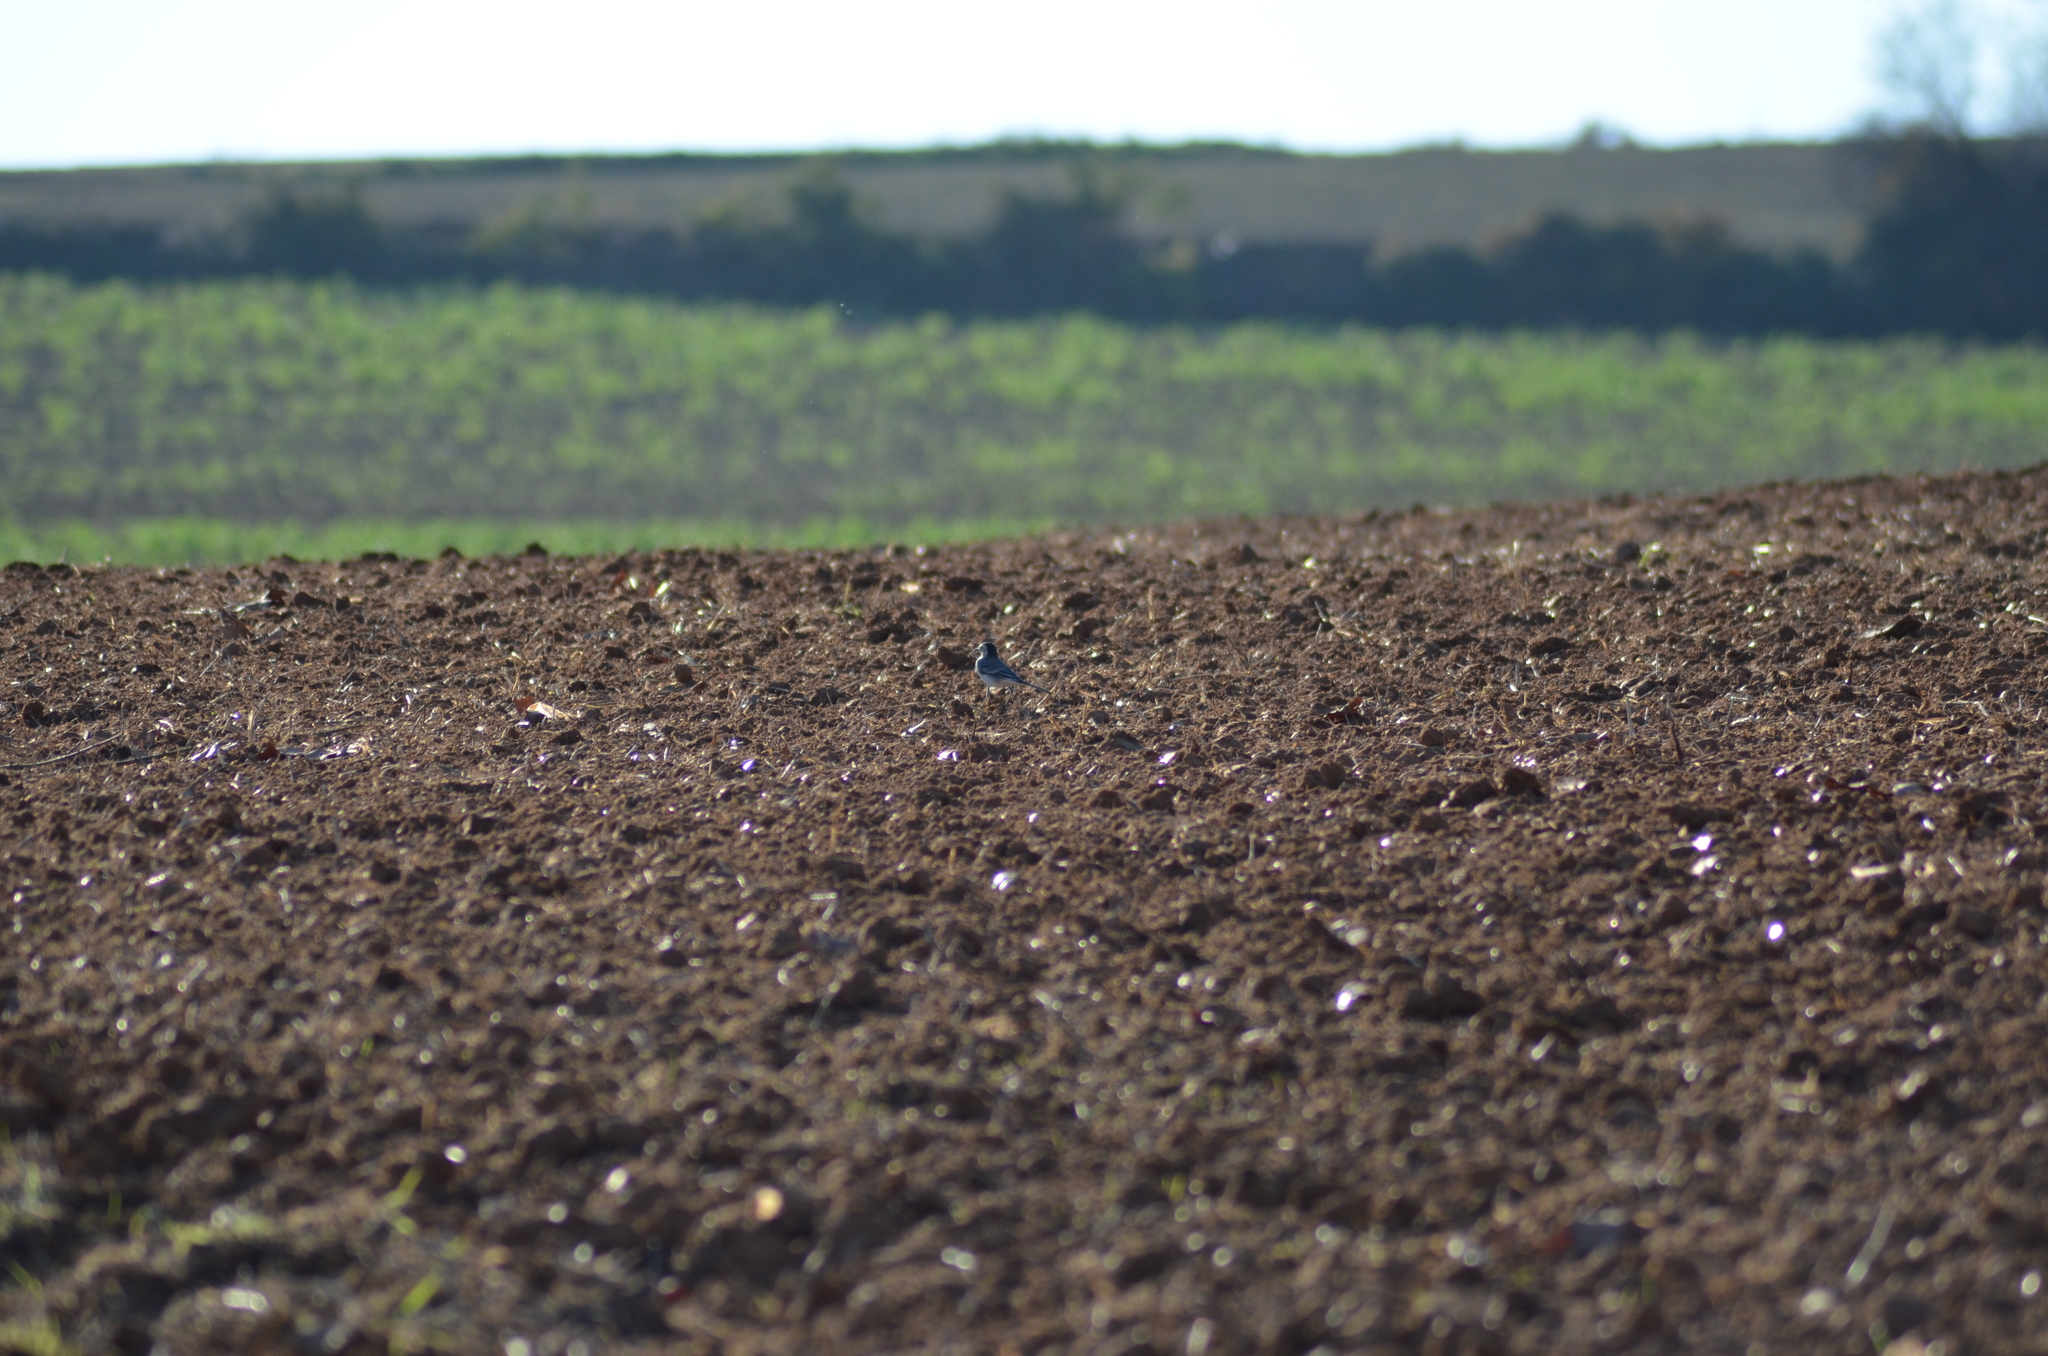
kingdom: Animalia
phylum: Chordata
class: Aves
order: Passeriformes
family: Motacillidae
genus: Motacilla
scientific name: Motacilla alba
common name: White wagtail
